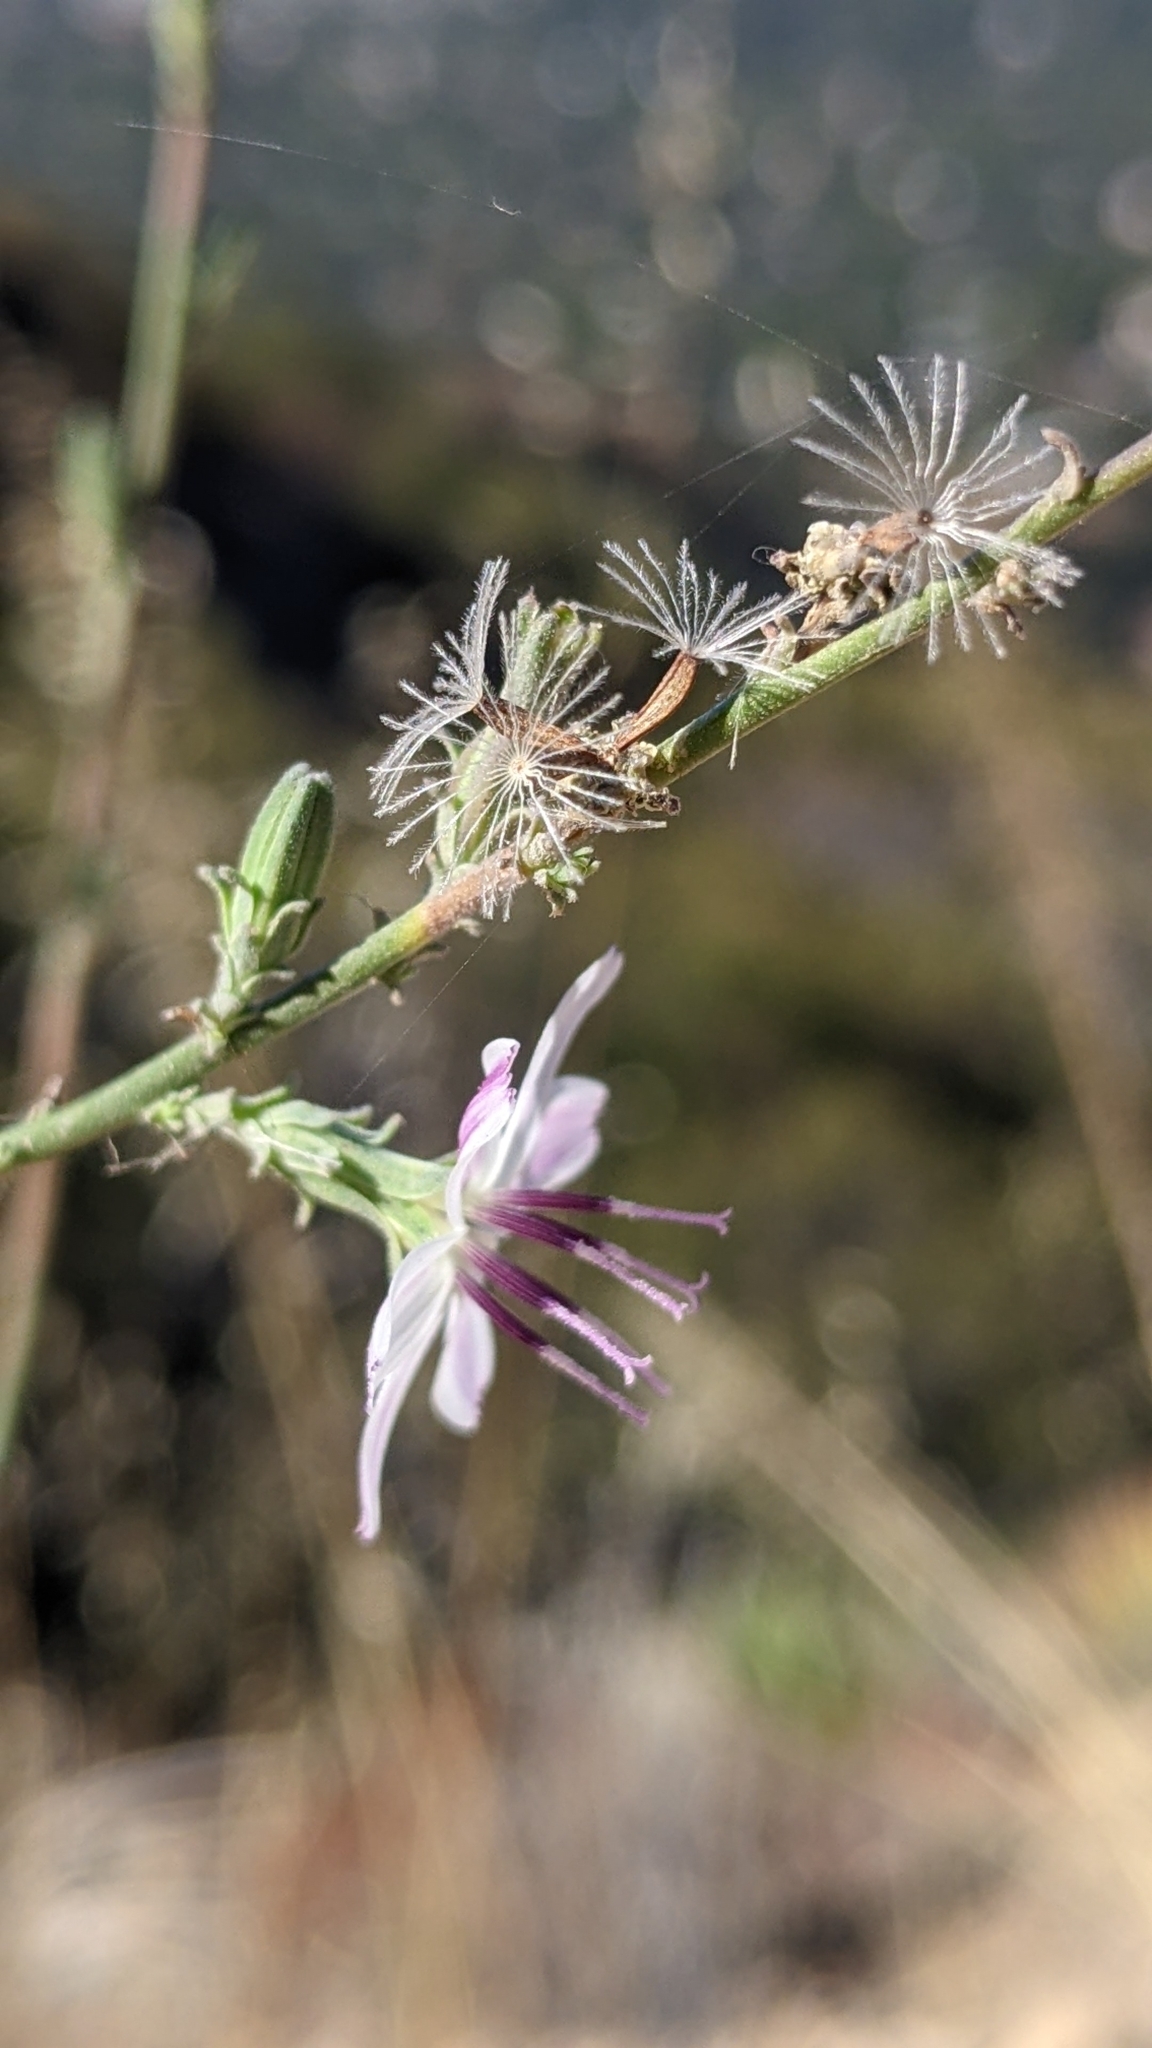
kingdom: Plantae
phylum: Tracheophyta
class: Magnoliopsida
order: Asterales
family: Asteraceae
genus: Stephanomeria
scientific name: Stephanomeria virgata
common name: Virgate wirelettuce
